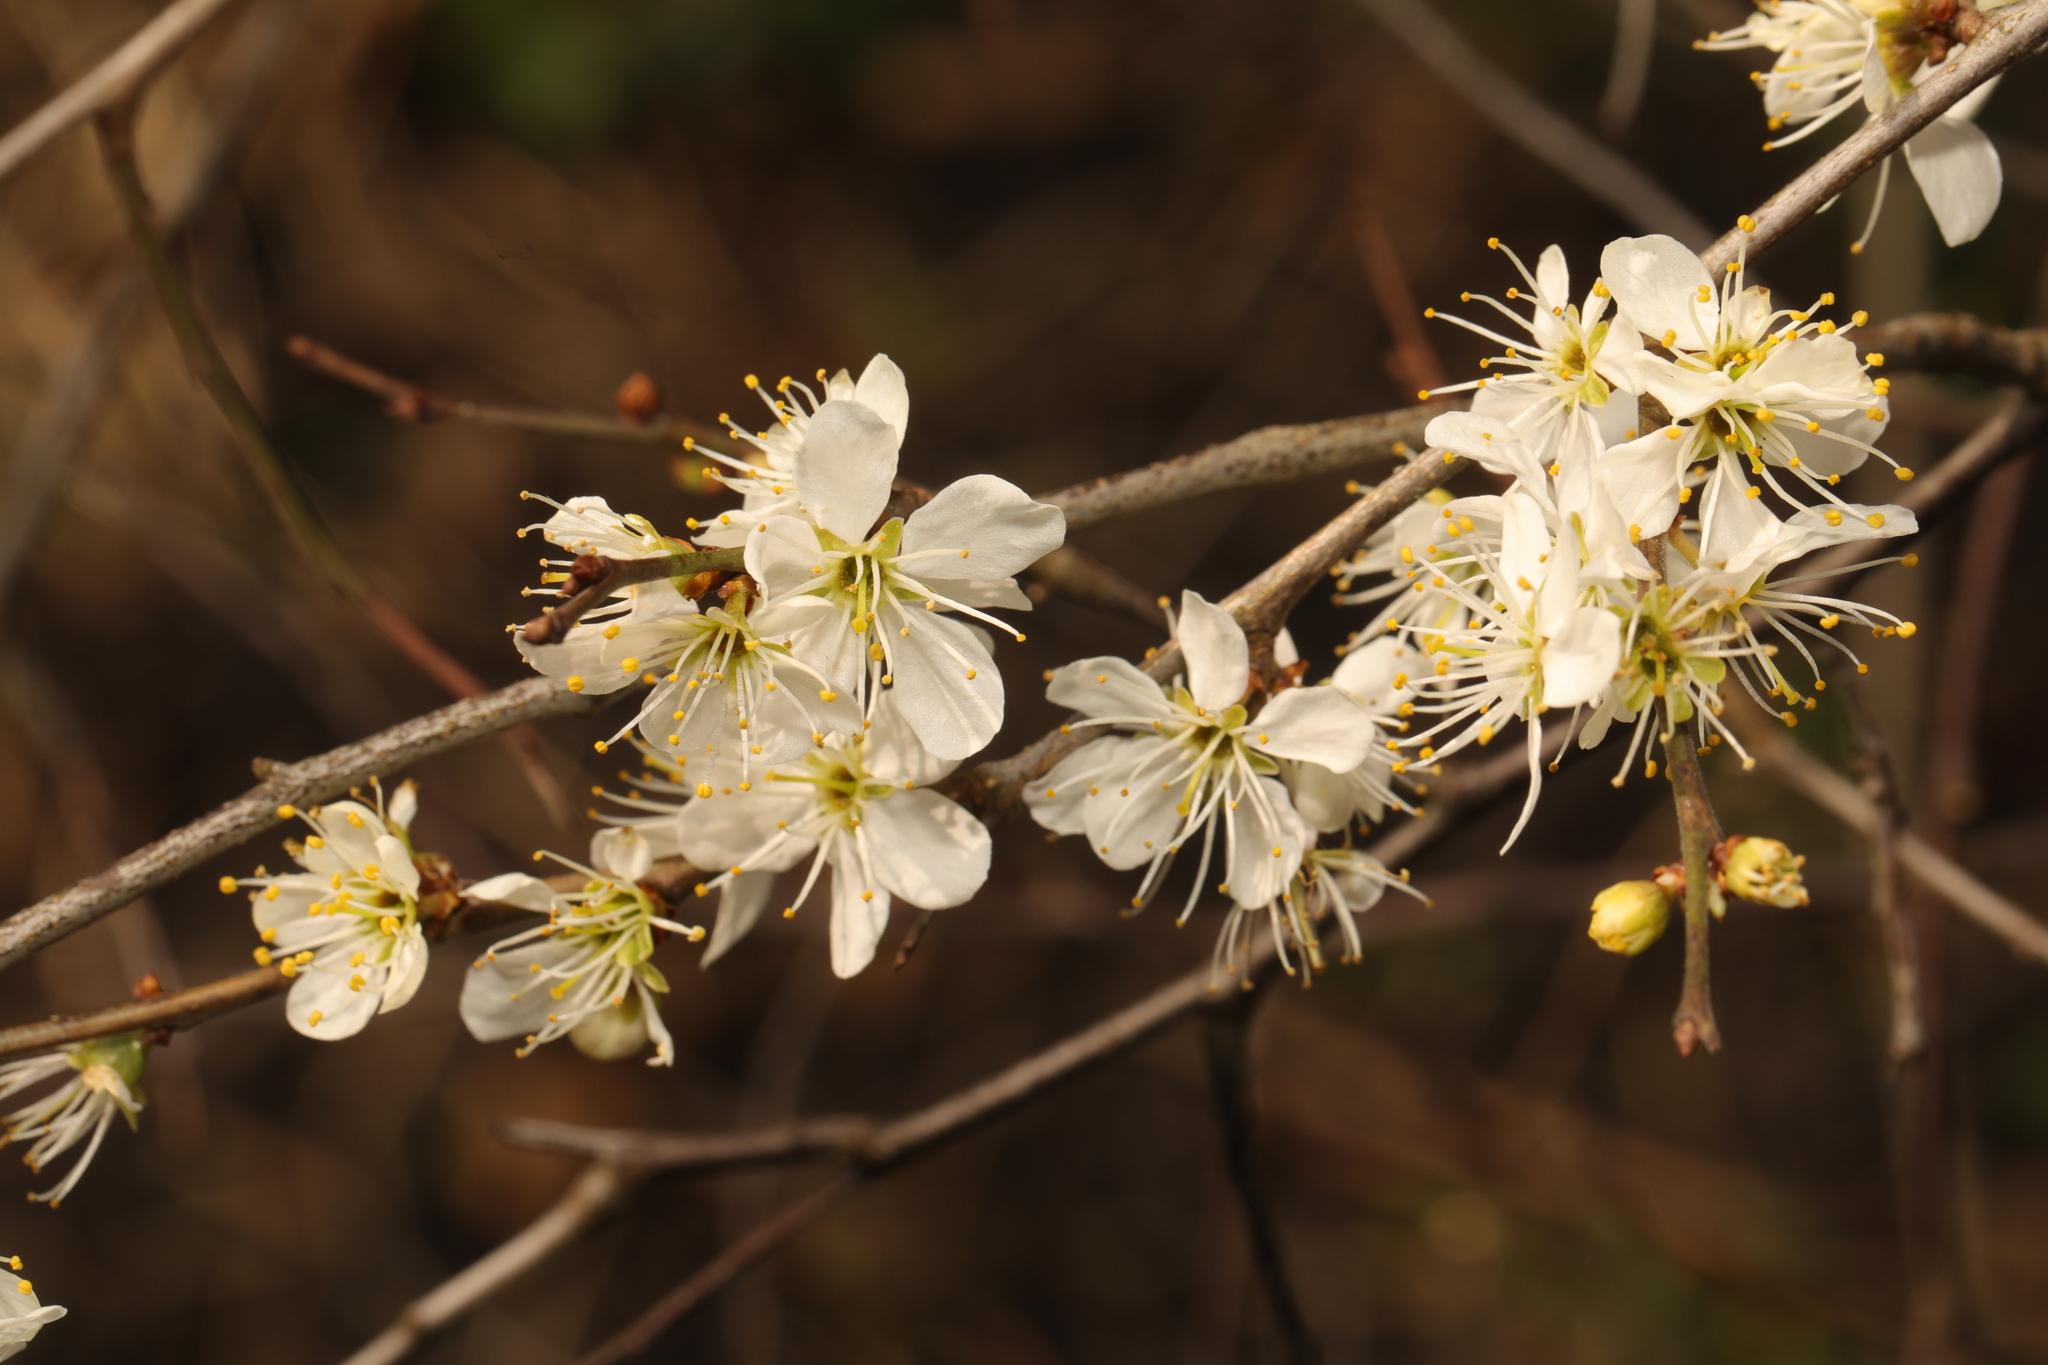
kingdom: Plantae
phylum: Tracheophyta
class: Magnoliopsida
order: Rosales
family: Rosaceae
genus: Prunus
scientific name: Prunus spinosa
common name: Blackthorn
